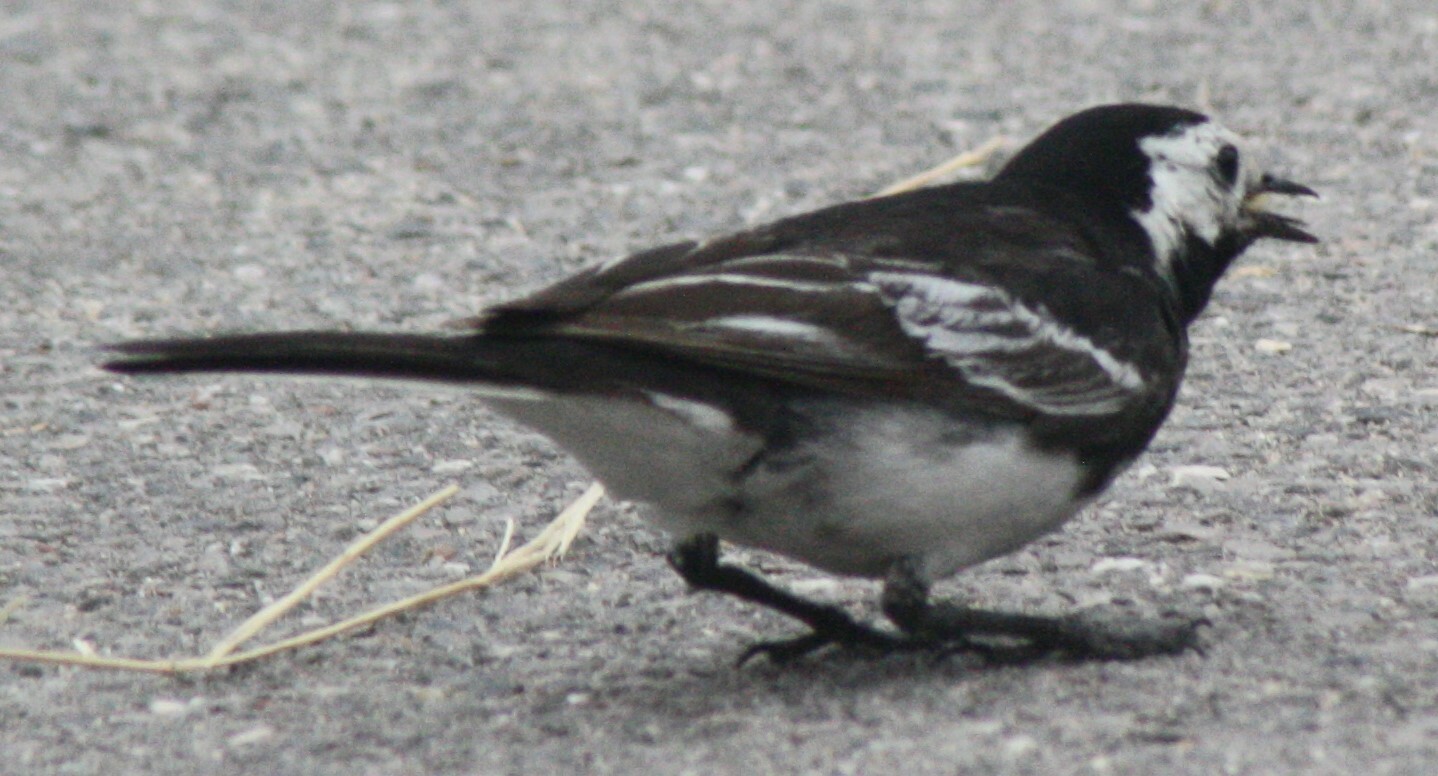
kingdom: Animalia
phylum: Chordata
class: Aves
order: Passeriformes
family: Motacillidae
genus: Motacilla
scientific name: Motacilla alba
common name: White wagtail
